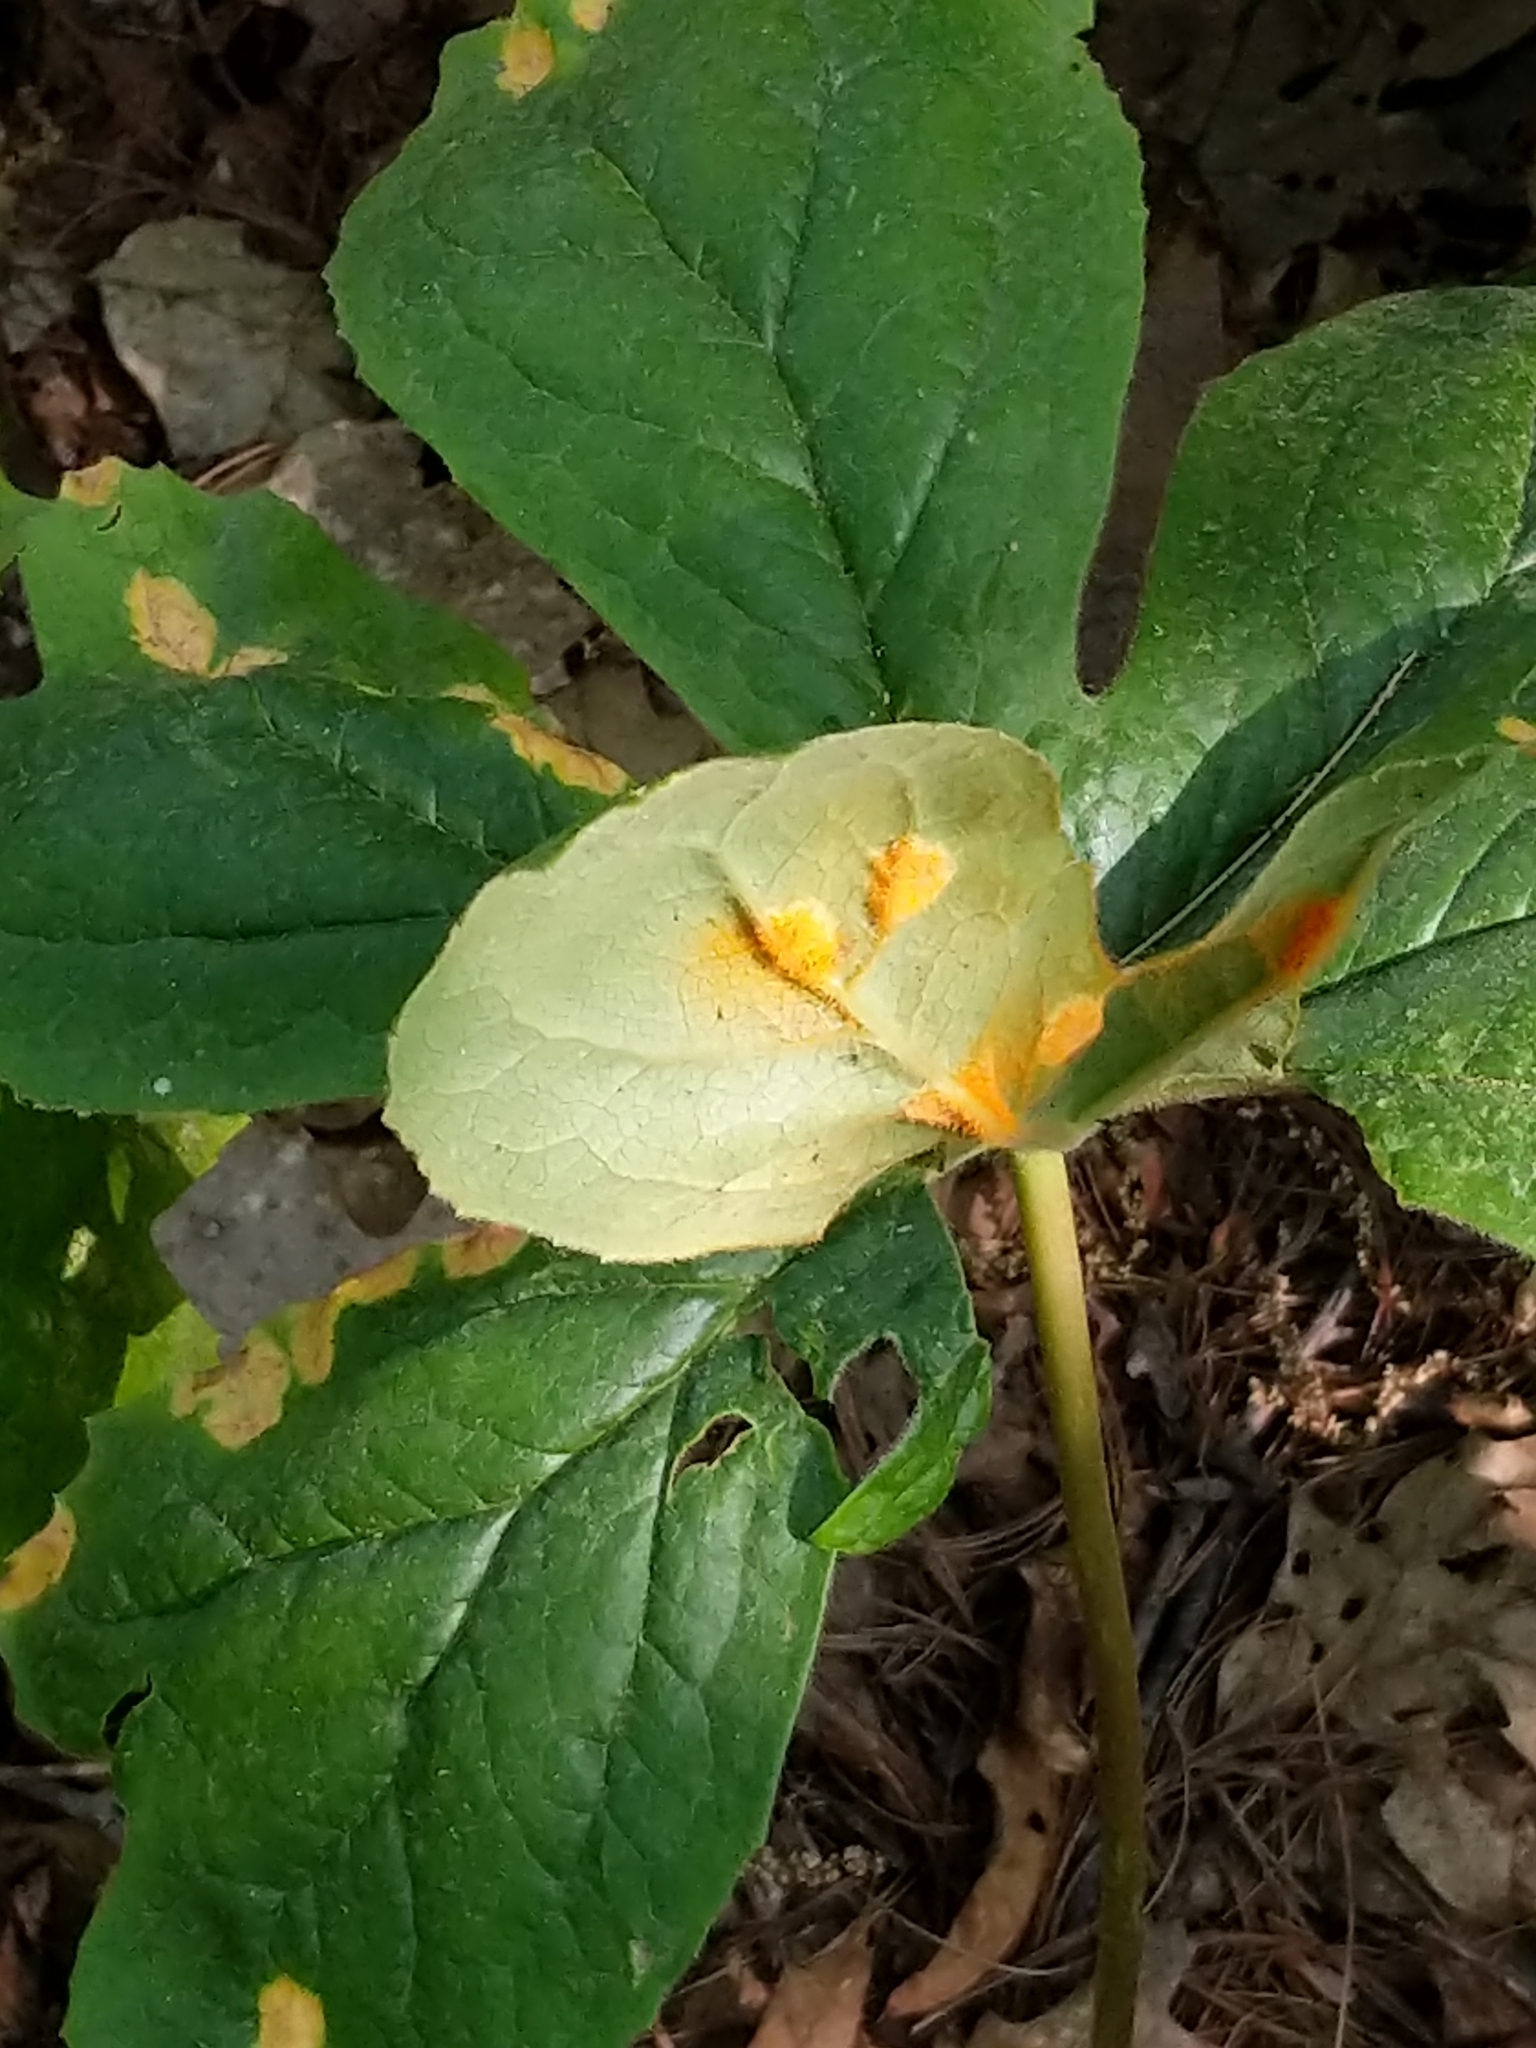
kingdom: Fungi
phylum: Basidiomycota
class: Pucciniomycetes
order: Pucciniales
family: Pucciniaceae
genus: Puccinia
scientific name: Puccinia podophylli
